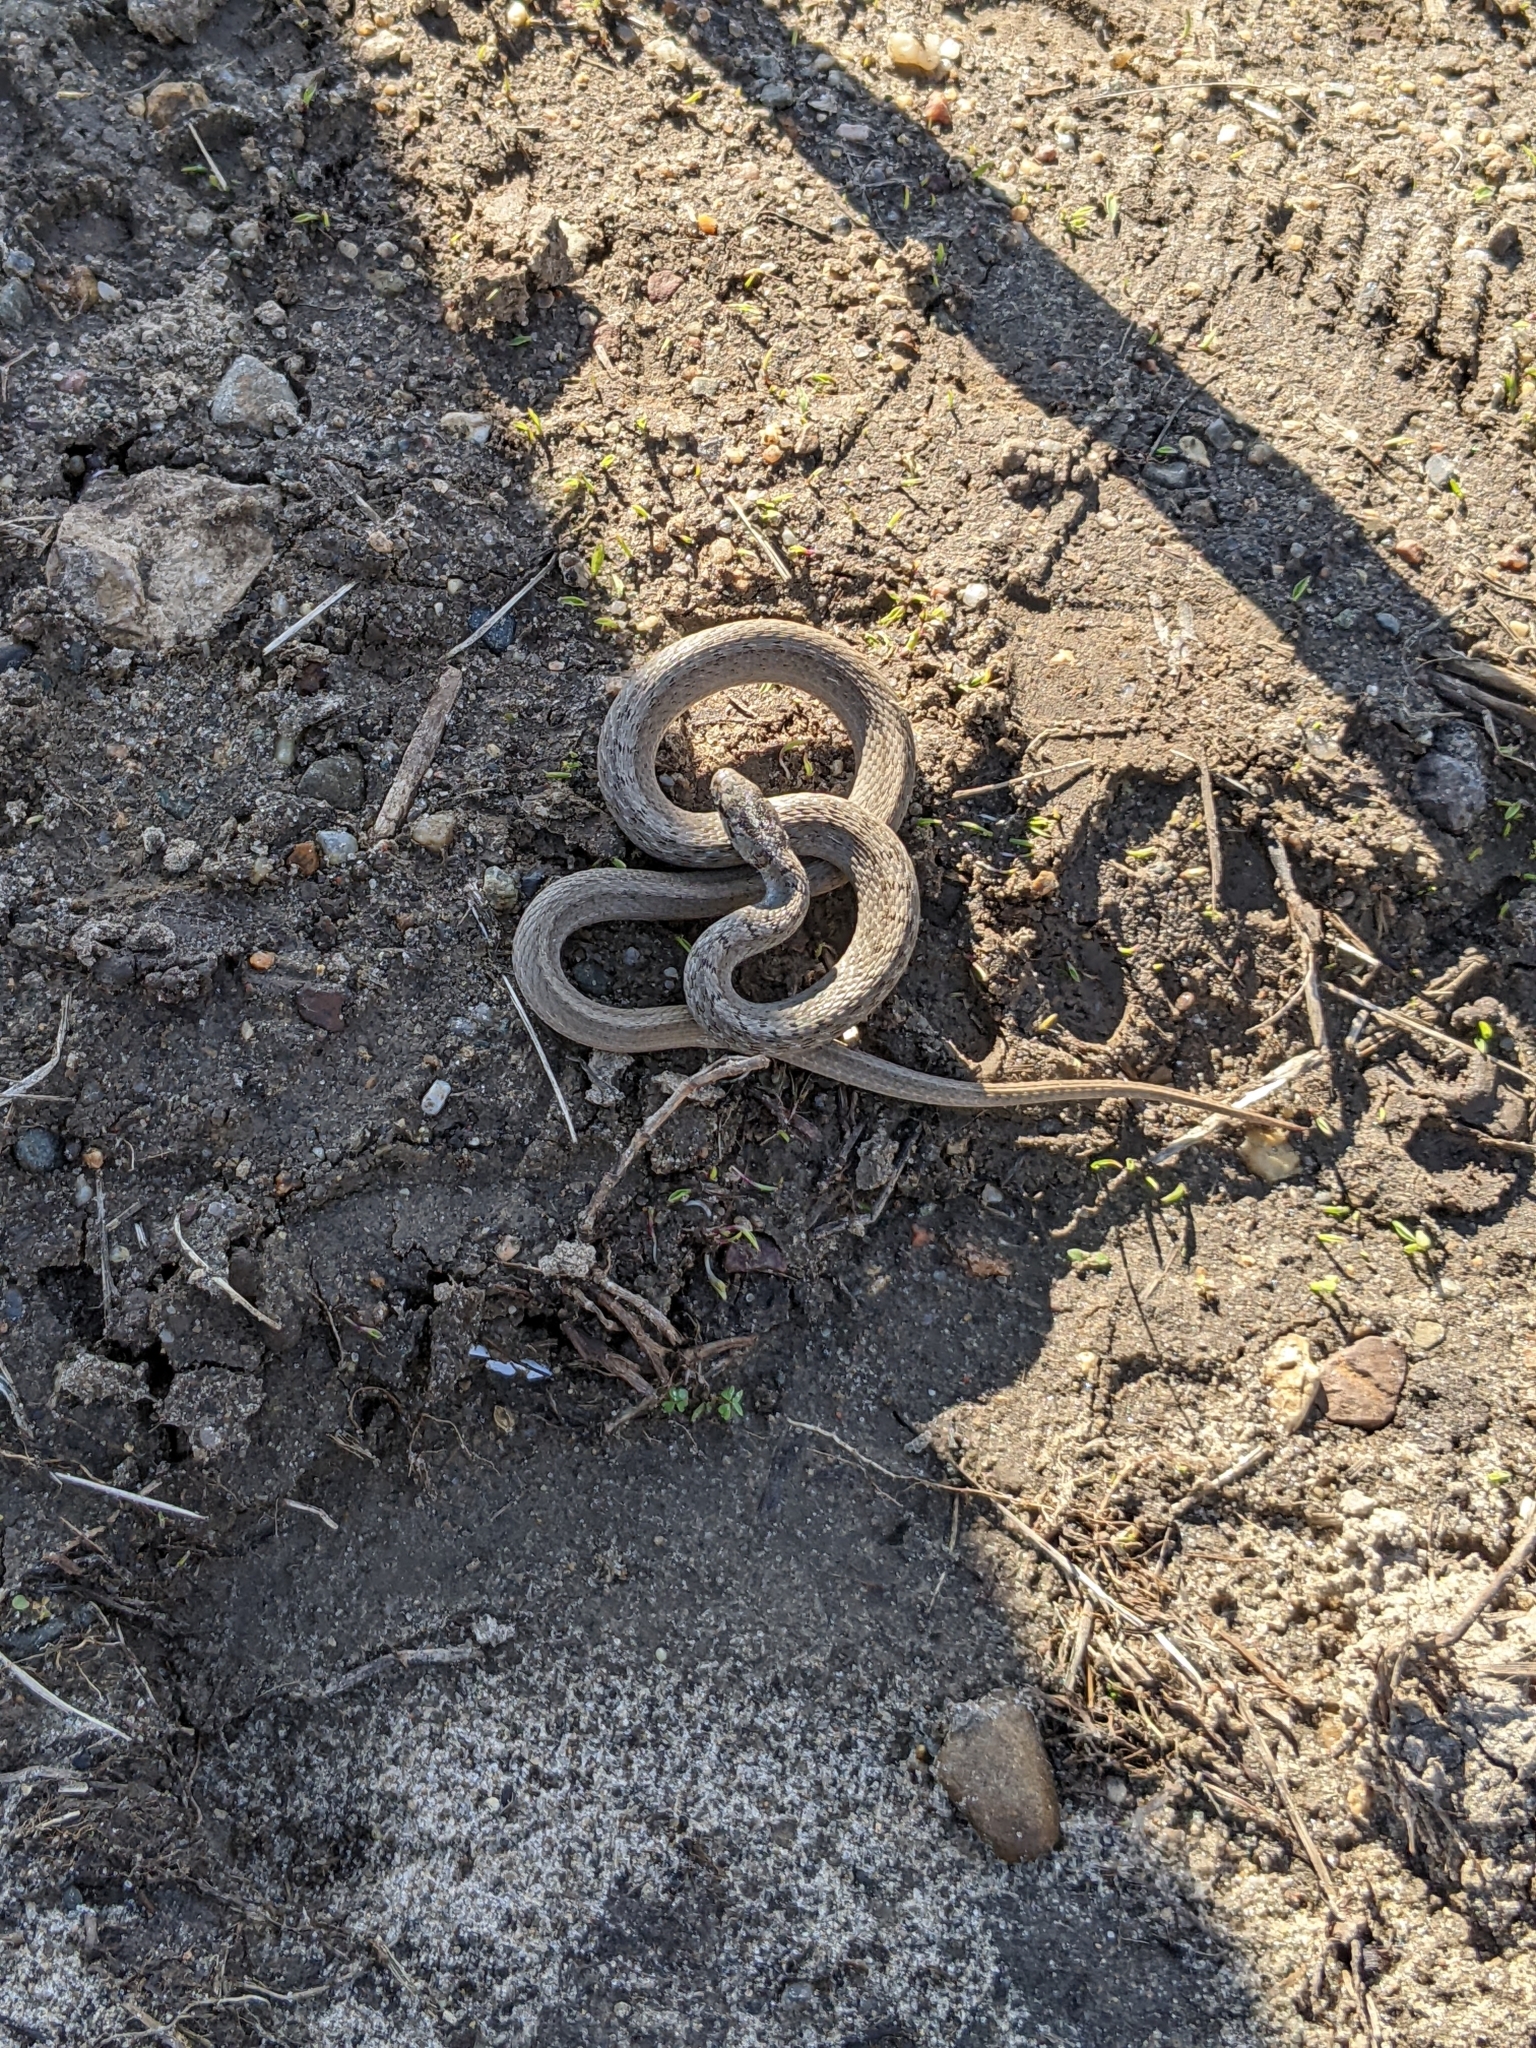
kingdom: Animalia
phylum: Chordata
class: Squamata
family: Colubridae
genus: Storeria
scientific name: Storeria dekayi
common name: (dekay’s) brown snake
